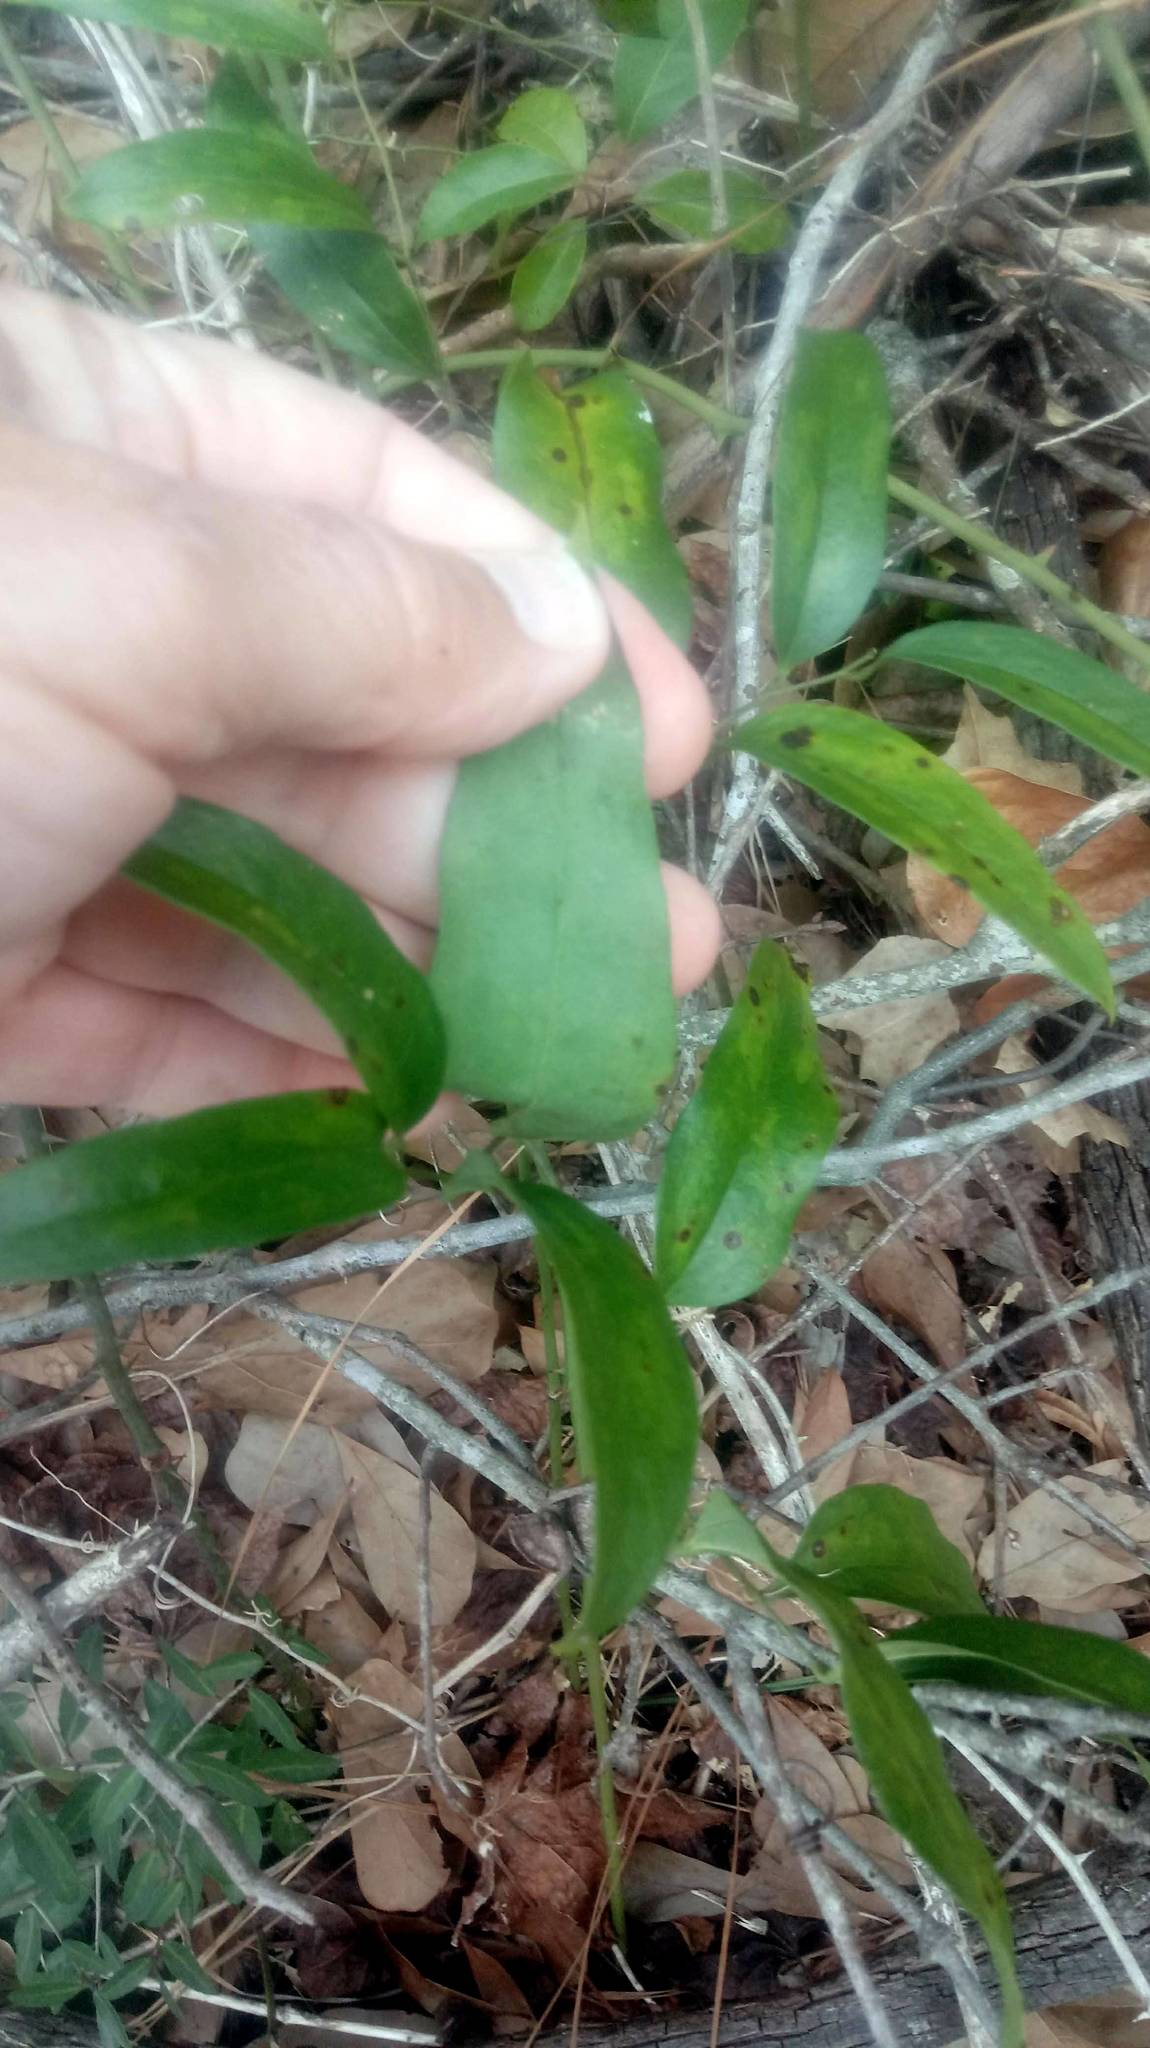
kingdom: Plantae
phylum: Tracheophyta
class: Liliopsida
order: Liliales
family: Smilacaceae
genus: Smilax
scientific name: Smilax maritima
